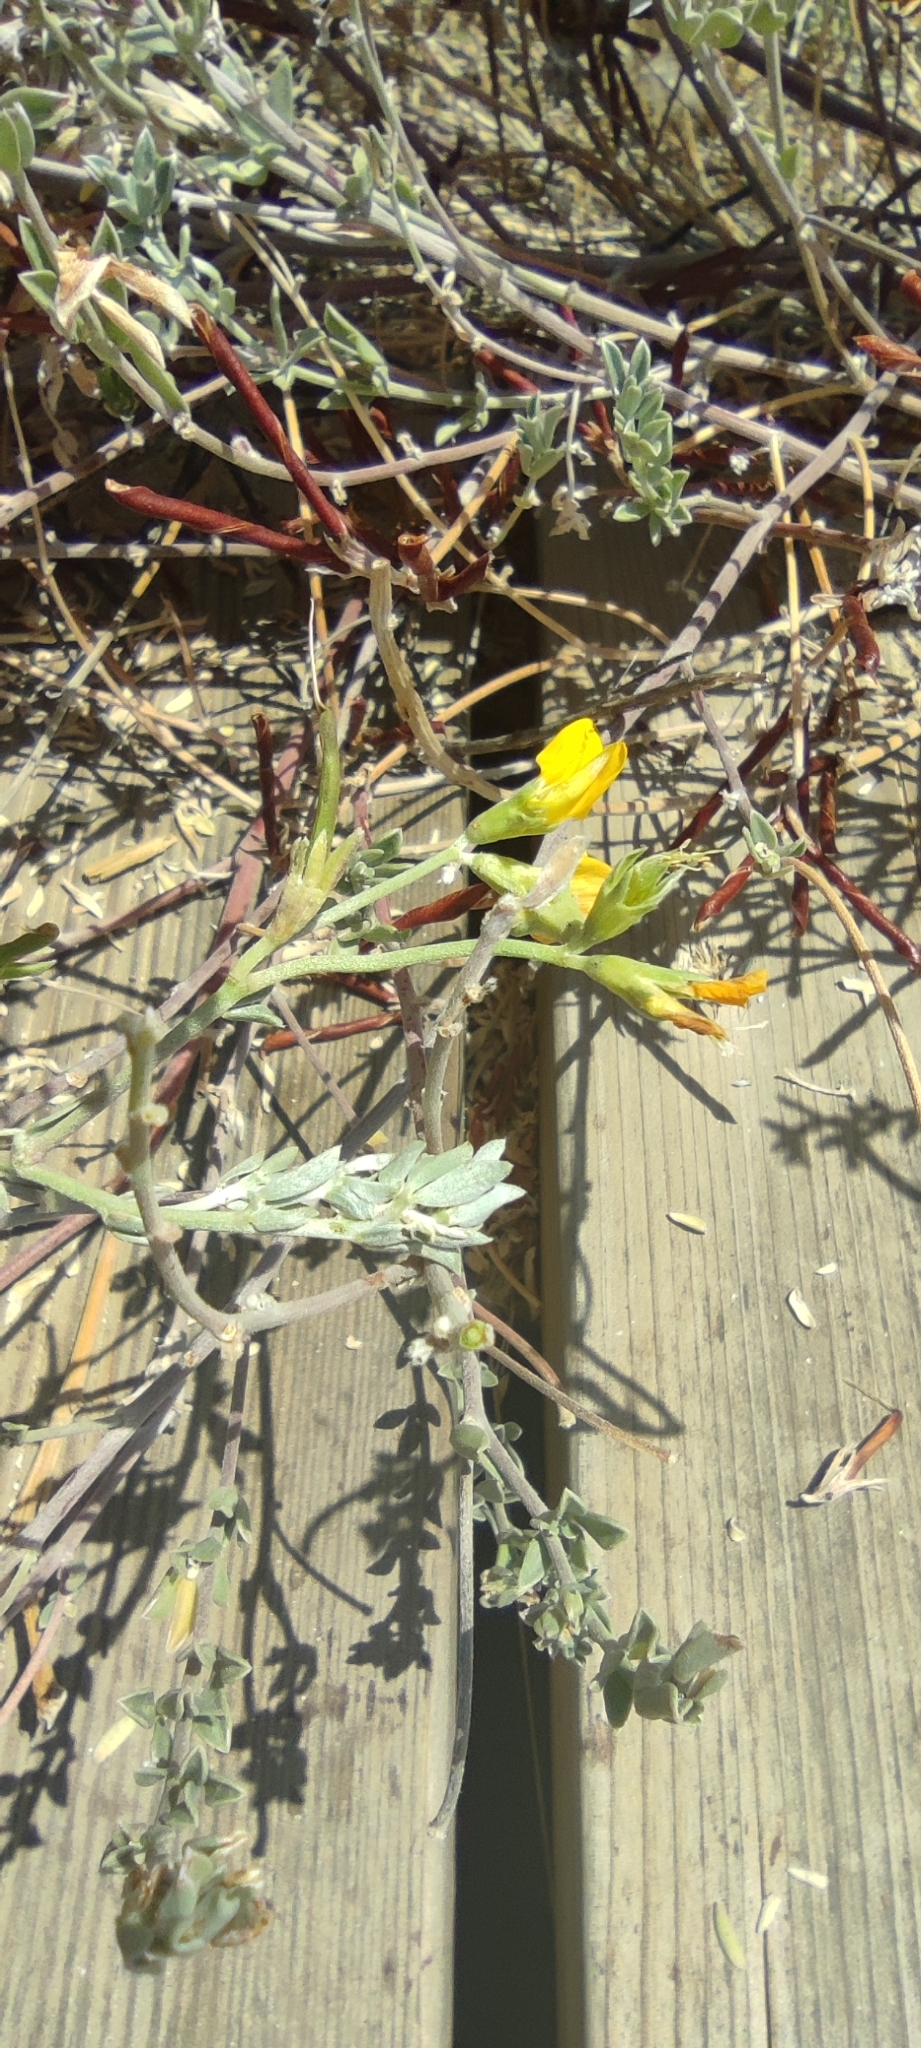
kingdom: Plantae
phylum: Tracheophyta
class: Magnoliopsida
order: Fabales
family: Fabaceae
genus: Lotus
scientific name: Lotus creticus
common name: Cretan bird's-foot trefoil
